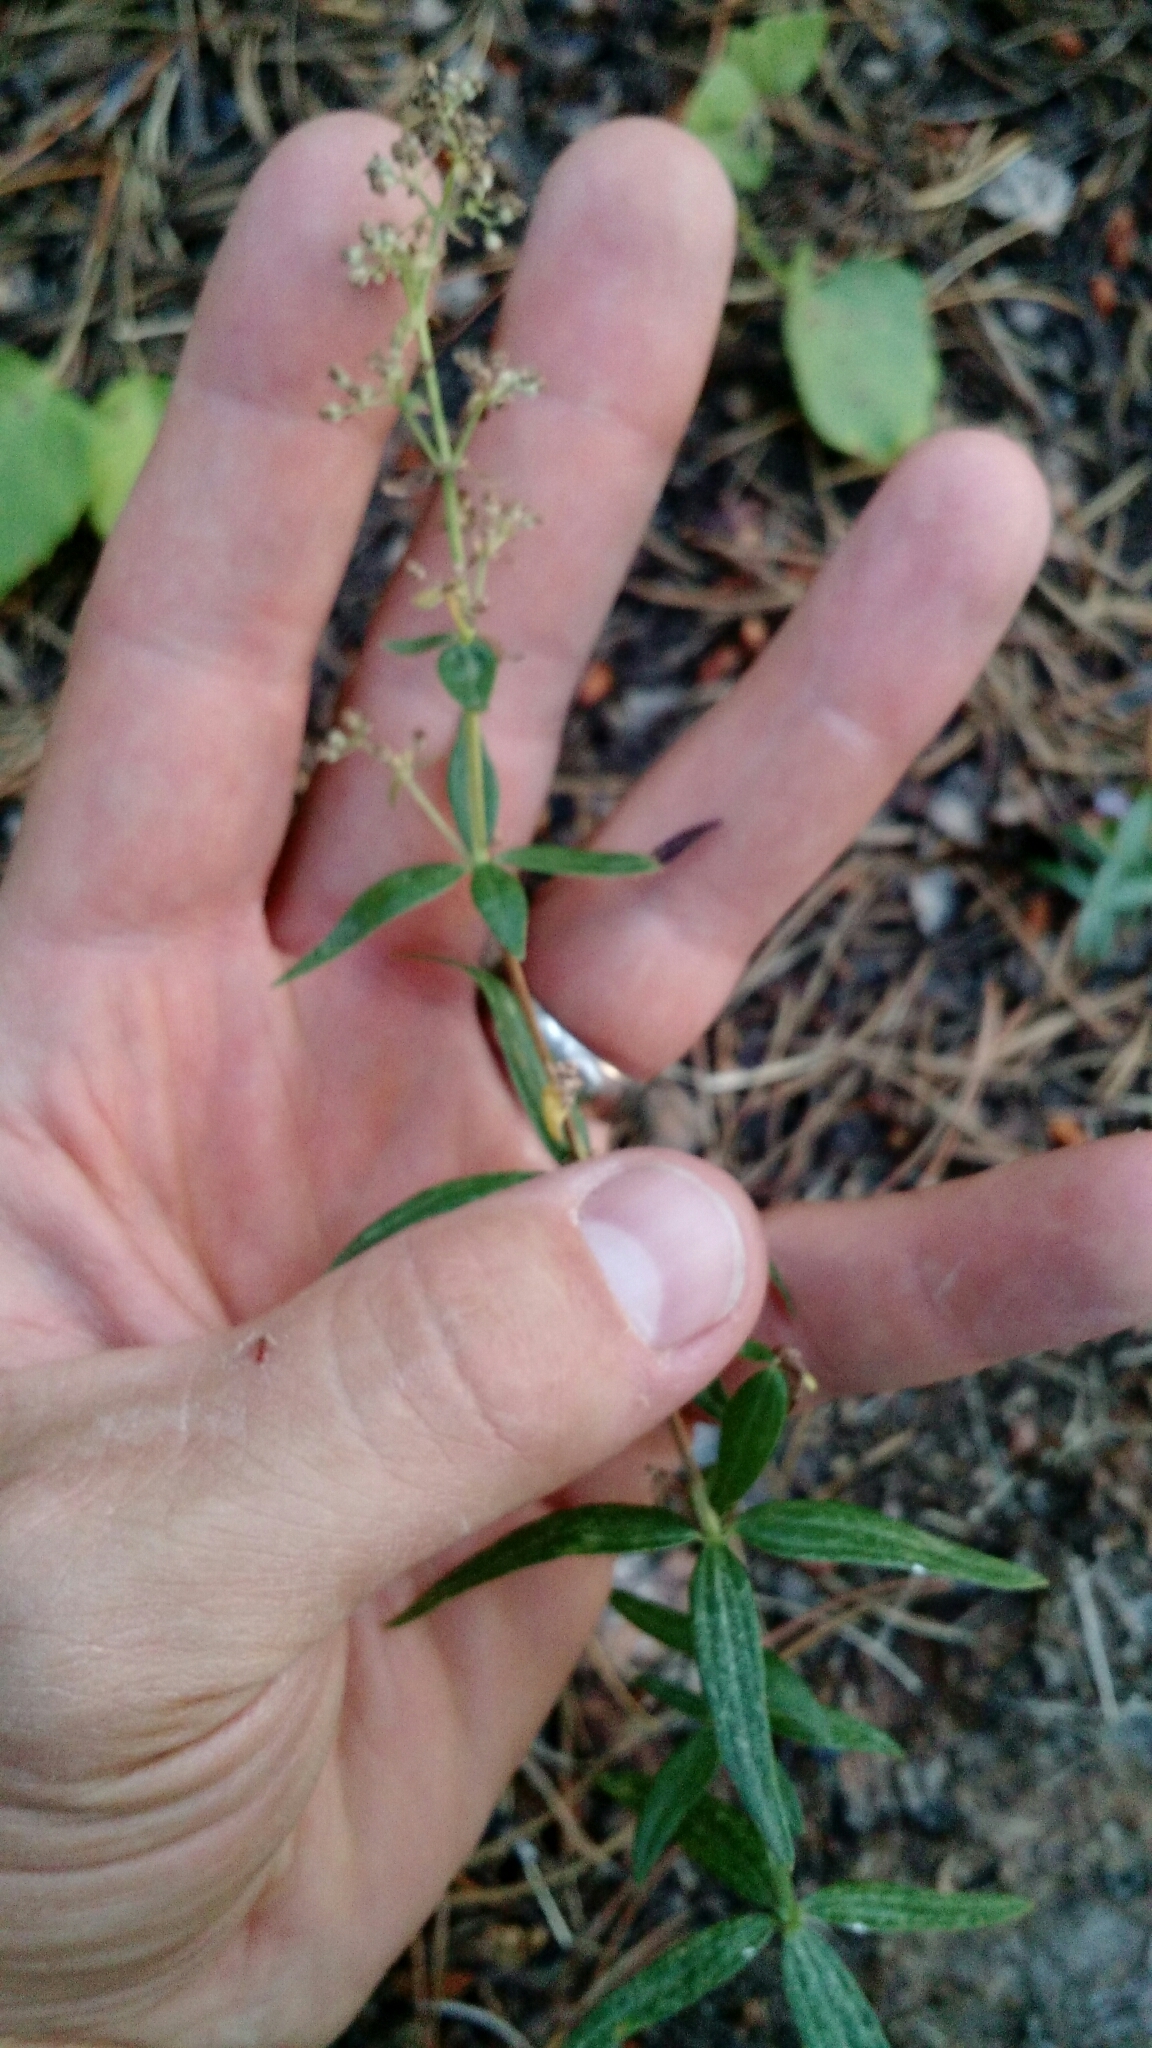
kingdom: Plantae
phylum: Tracheophyta
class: Magnoliopsida
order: Gentianales
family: Rubiaceae
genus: Galium
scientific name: Galium boreale
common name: Northern bedstraw
